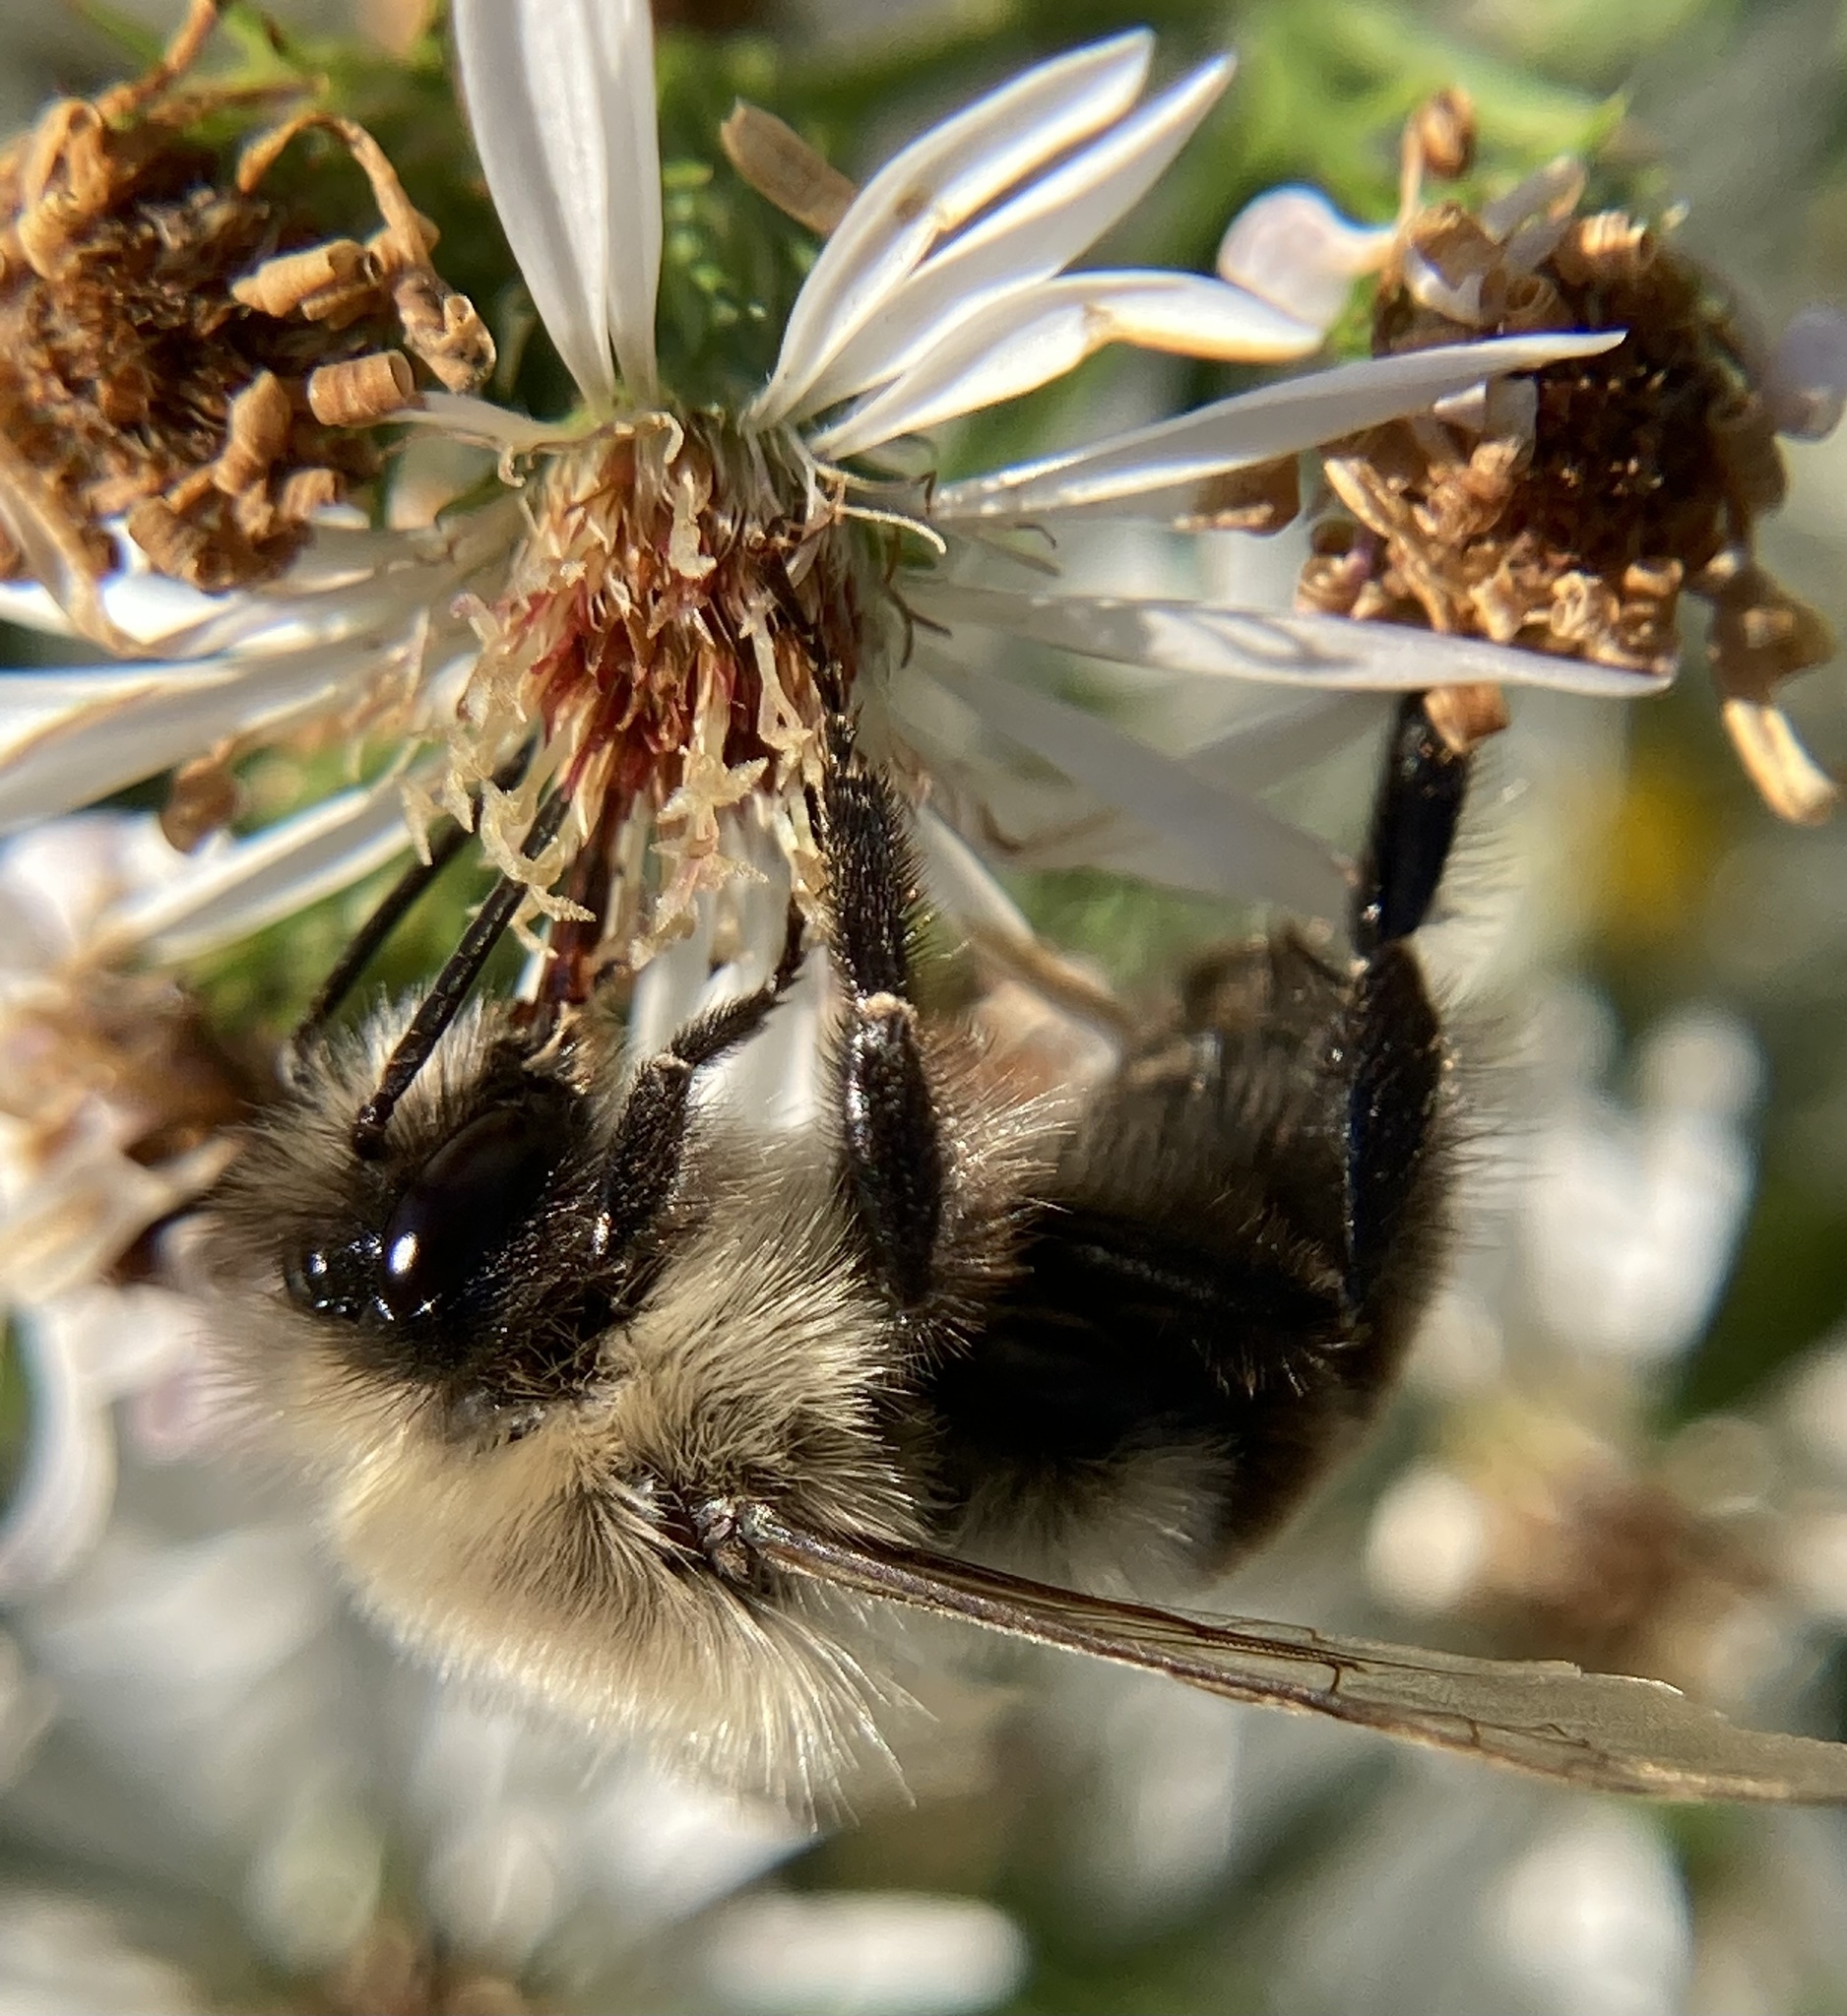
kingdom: Animalia
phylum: Arthropoda
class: Insecta
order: Hymenoptera
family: Apidae
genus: Bombus
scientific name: Bombus impatiens
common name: Common eastern bumble bee
